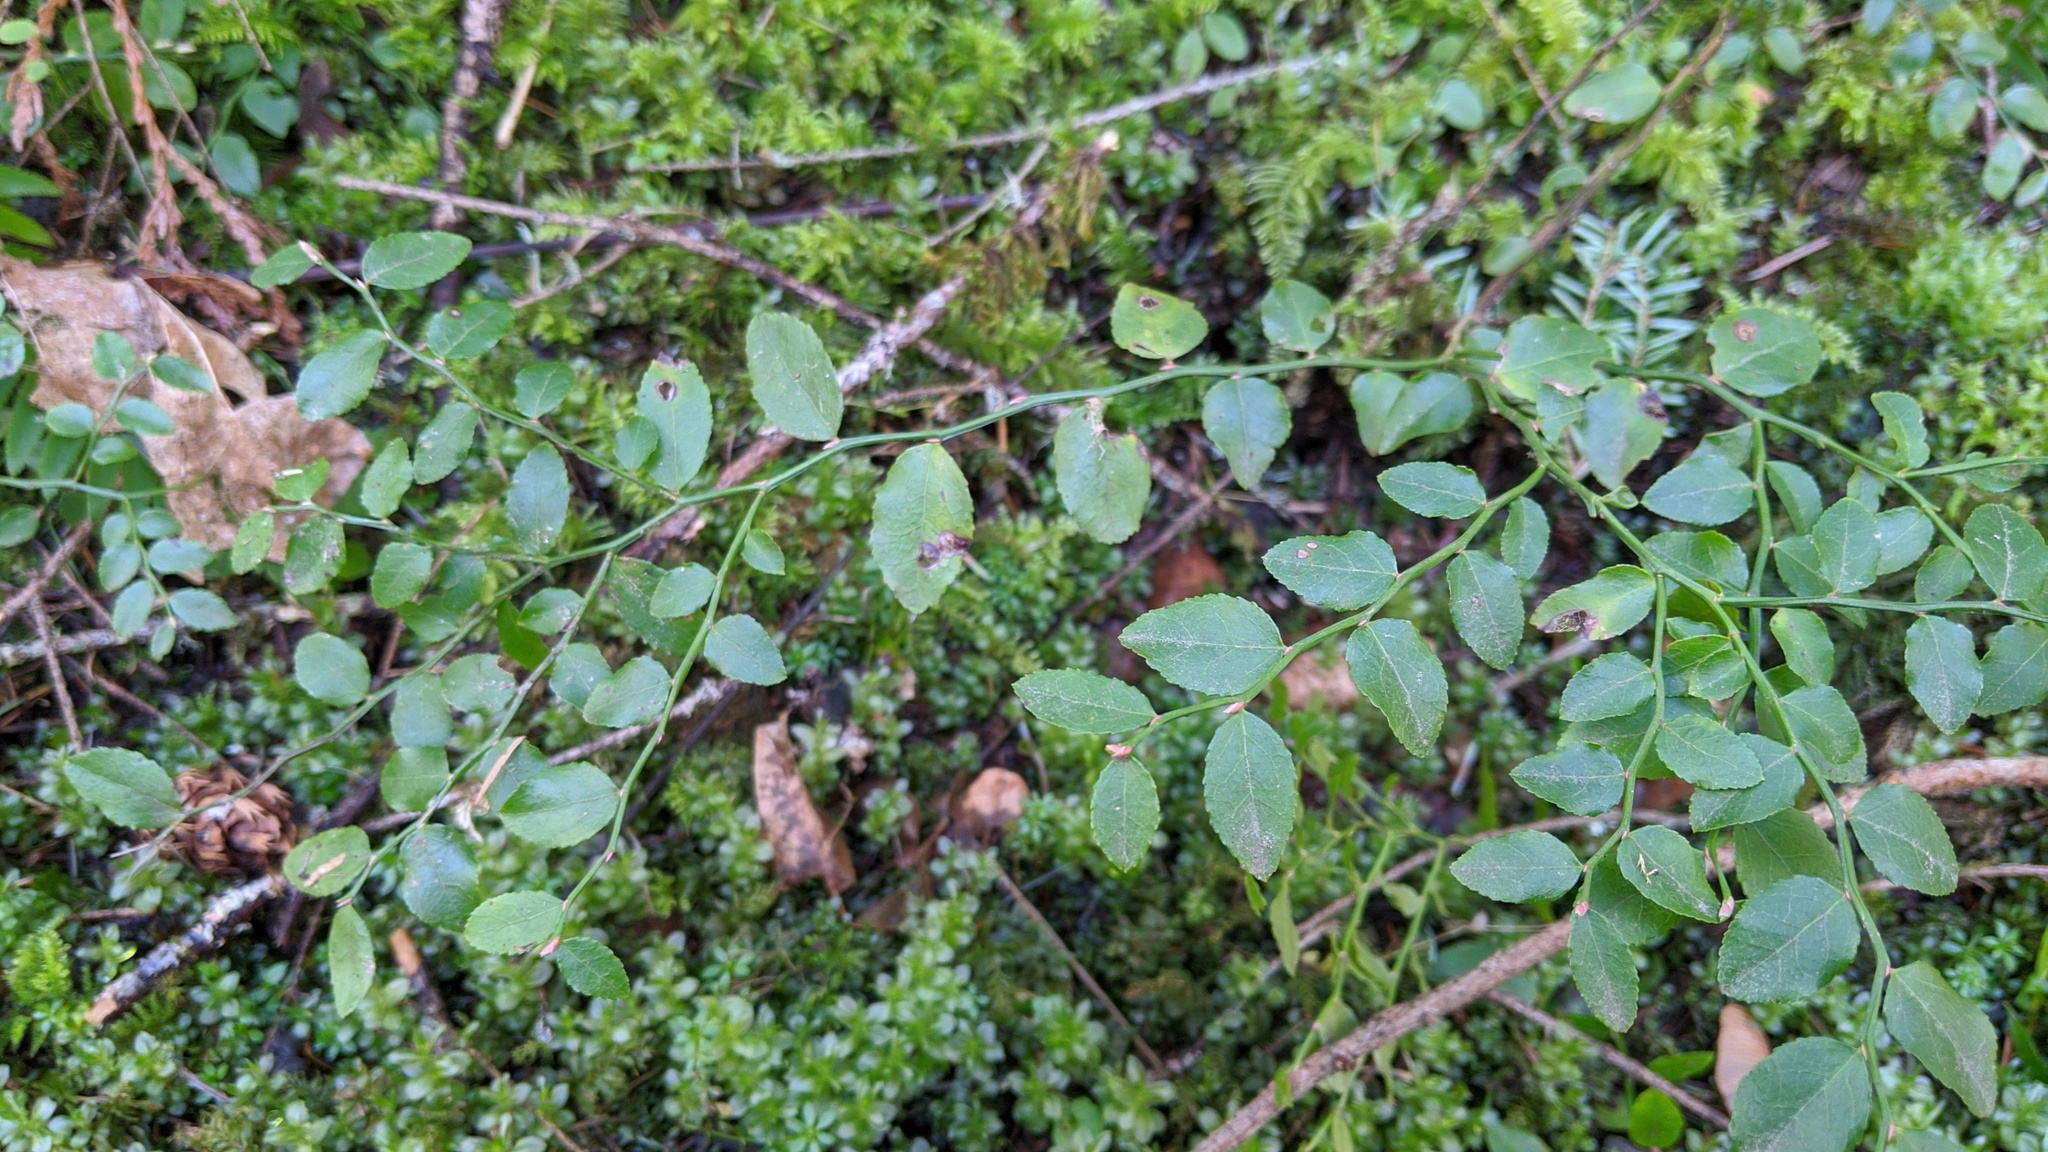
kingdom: Plantae
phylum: Tracheophyta
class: Magnoliopsida
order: Ericales
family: Ericaceae
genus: Vaccinium
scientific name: Vaccinium parvifolium
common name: Red-huckleberry
